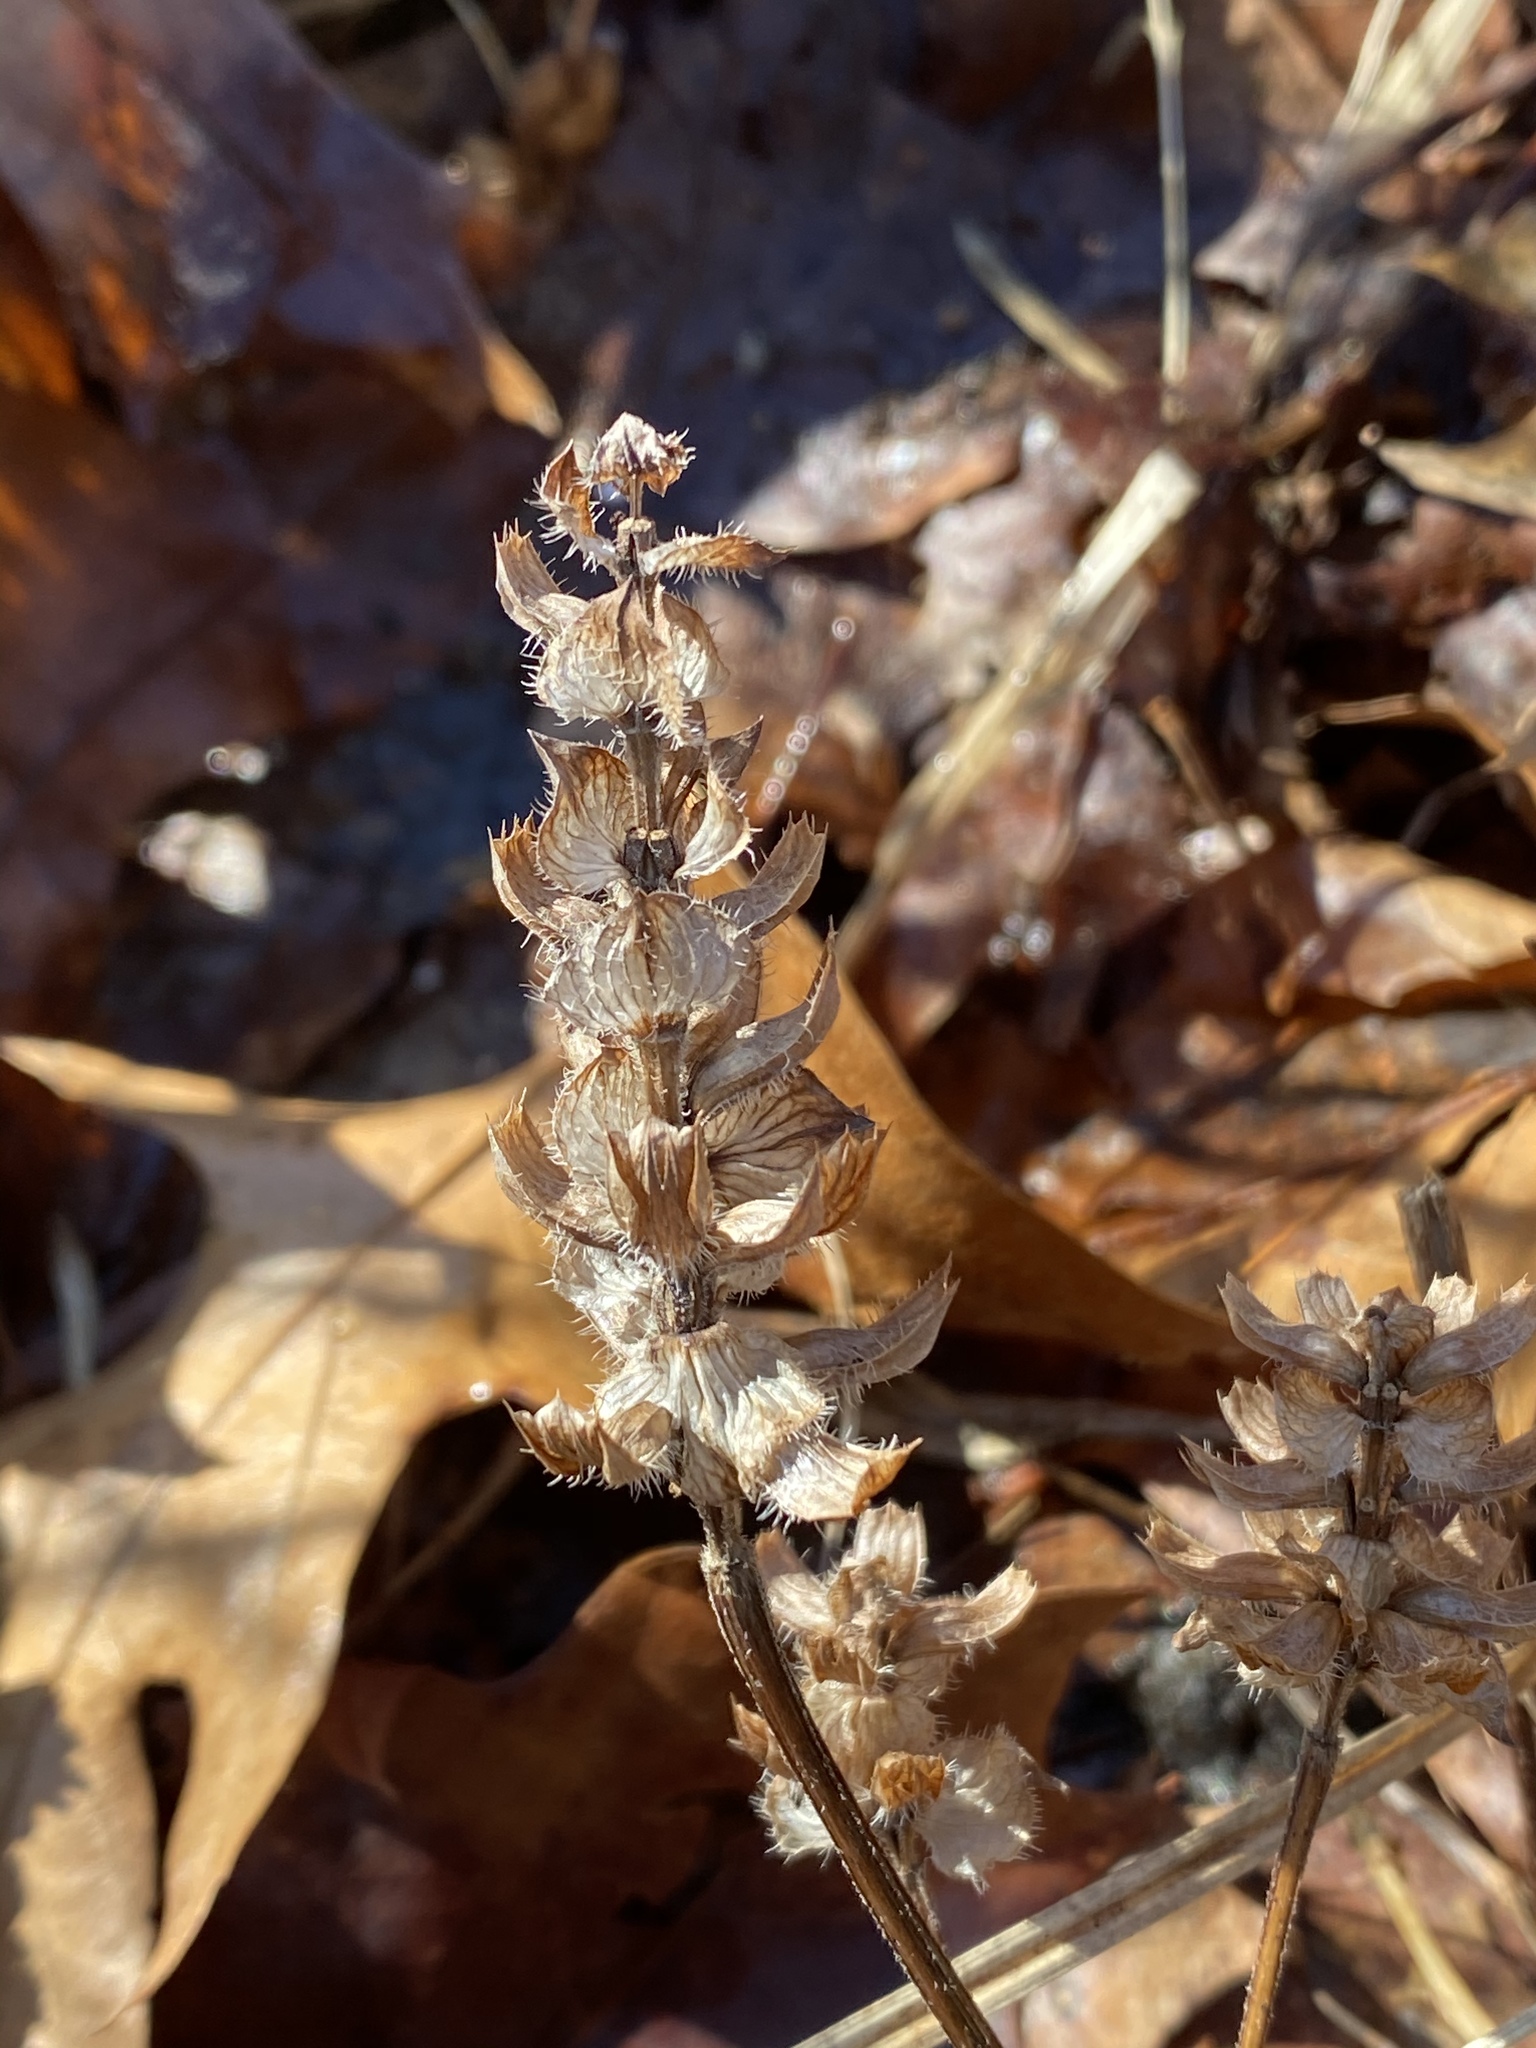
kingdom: Plantae
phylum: Tracheophyta
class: Magnoliopsida
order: Lamiales
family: Lamiaceae
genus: Prunella
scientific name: Prunella vulgaris
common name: Heal-all
